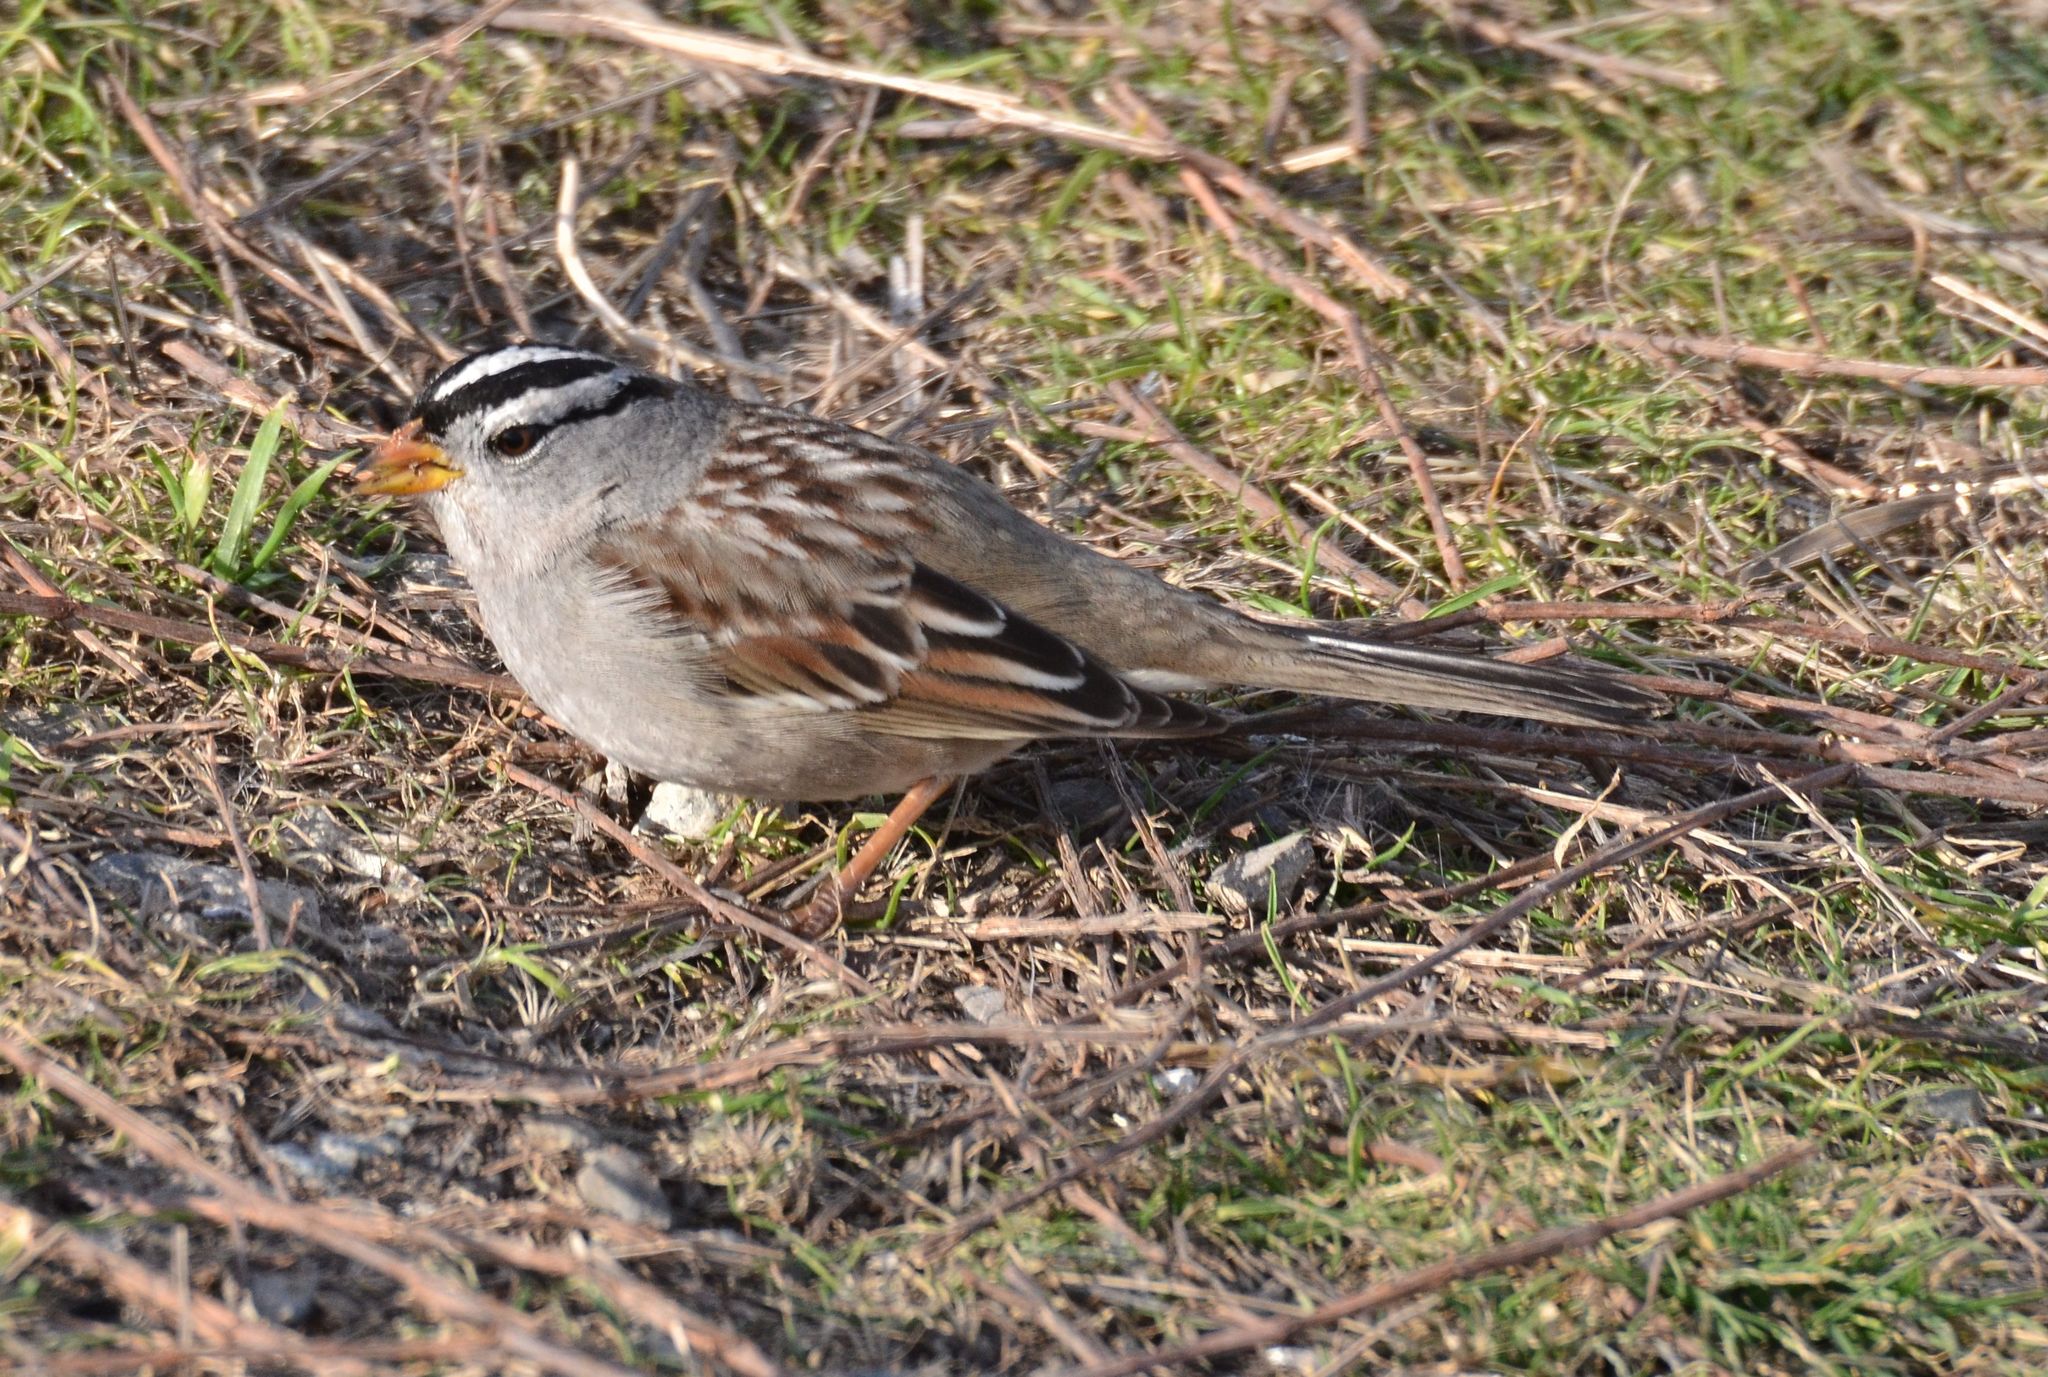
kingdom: Animalia
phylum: Chordata
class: Aves
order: Passeriformes
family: Passerellidae
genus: Zonotrichia
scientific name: Zonotrichia leucophrys
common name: White-crowned sparrow
